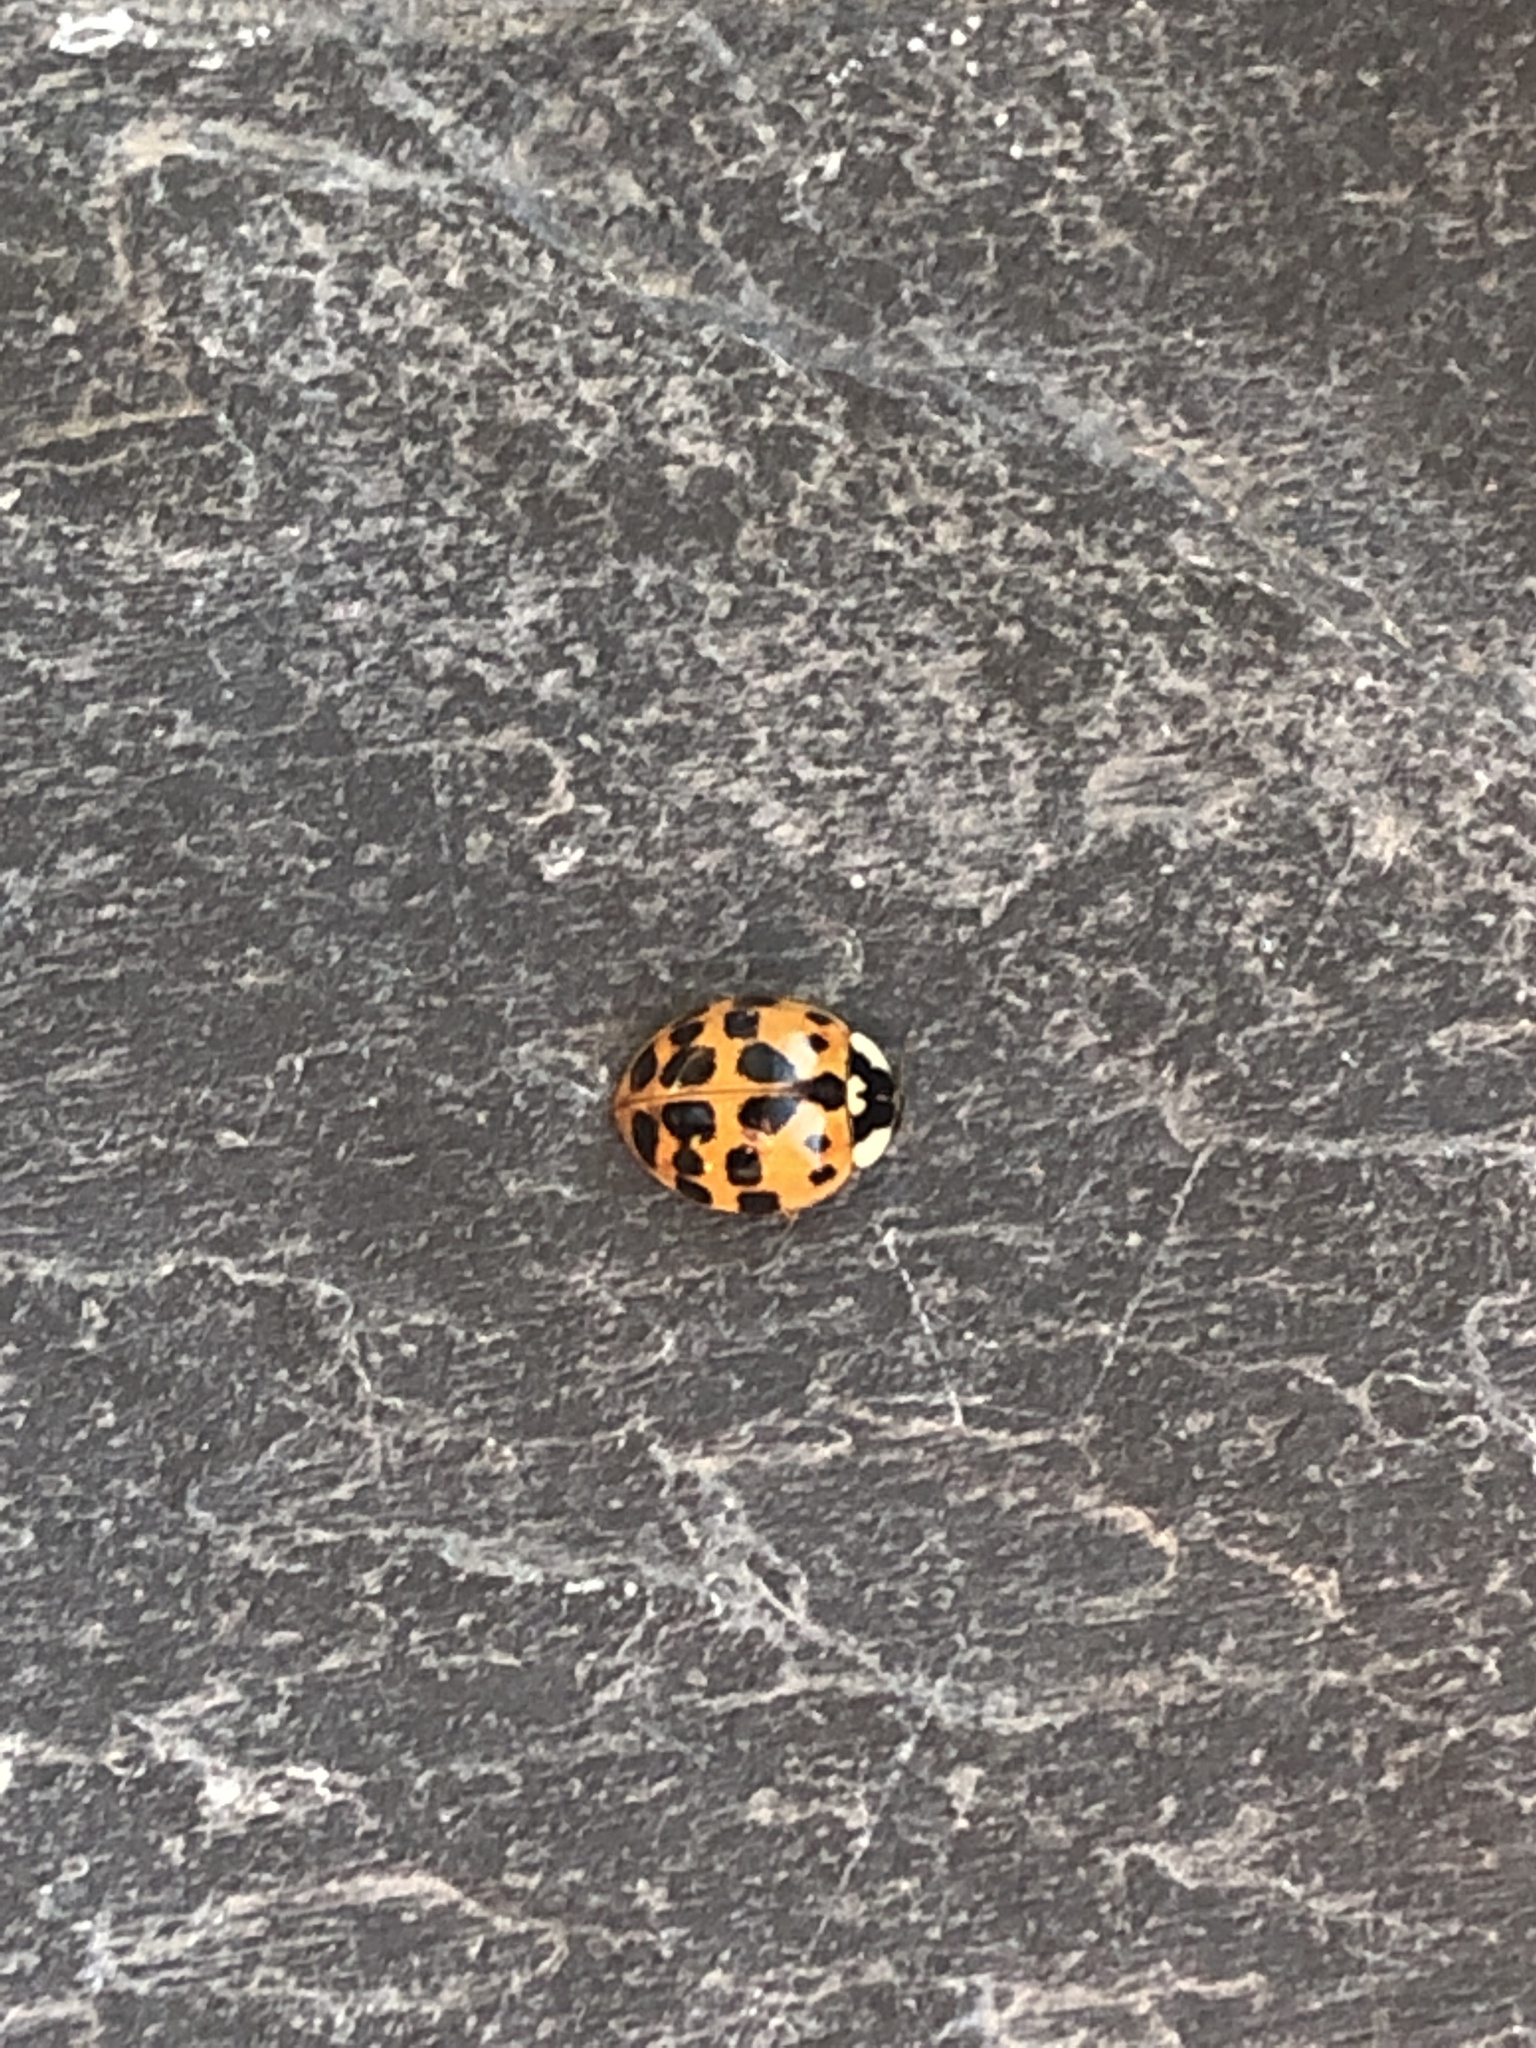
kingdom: Animalia
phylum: Arthropoda
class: Insecta
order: Coleoptera
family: Coccinellidae
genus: Harmonia
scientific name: Harmonia axyridis
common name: Harlequin ladybird
